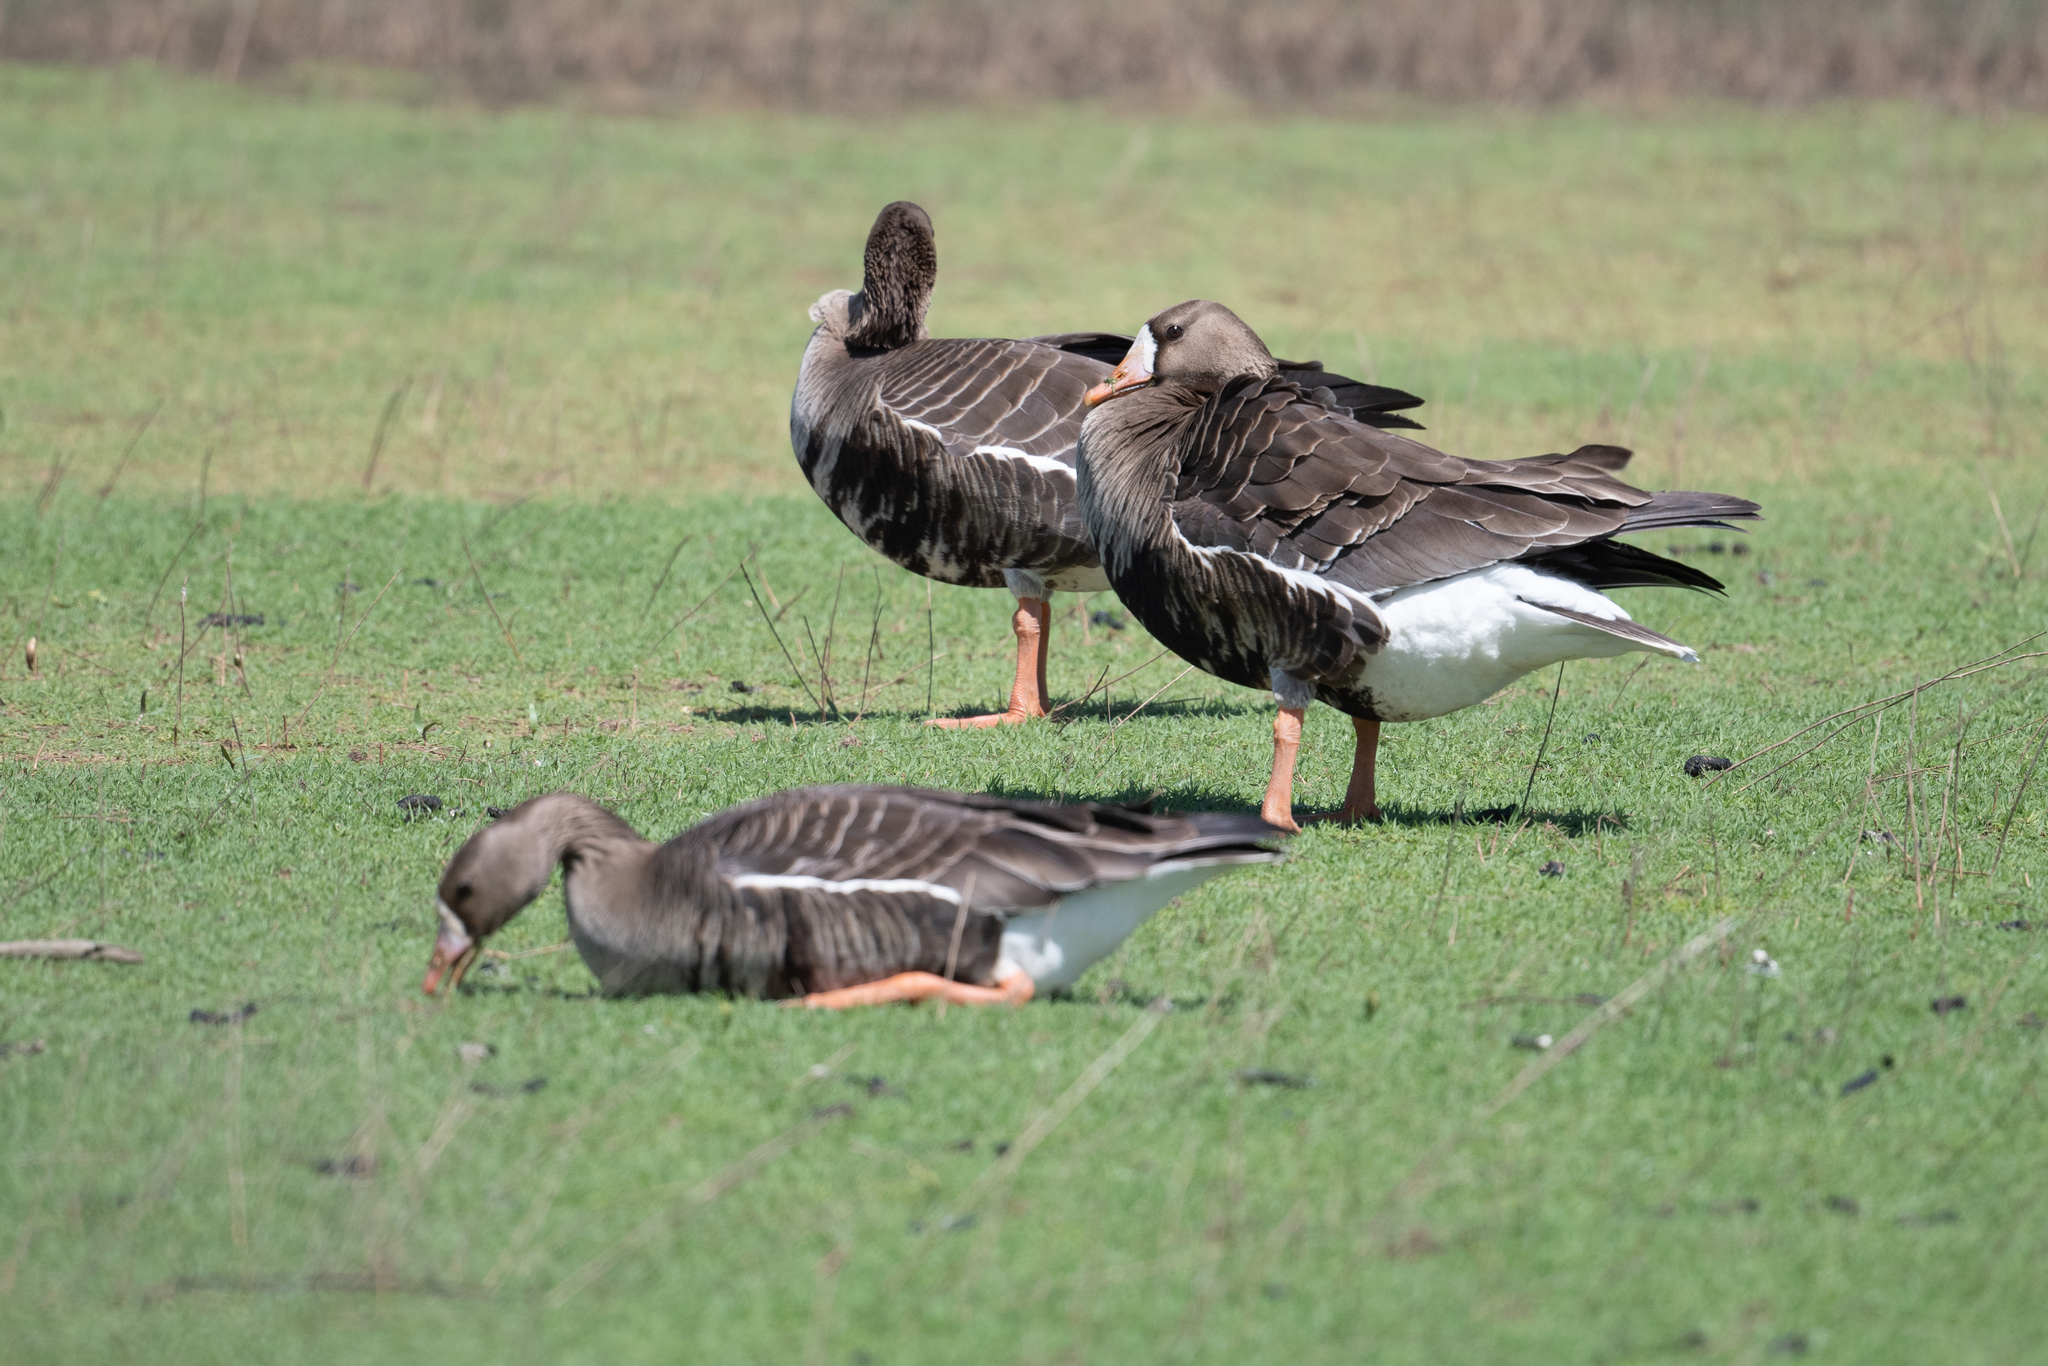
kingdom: Animalia
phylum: Chordata
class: Aves
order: Anseriformes
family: Anatidae
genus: Anser
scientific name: Anser albifrons
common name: Greater white-fronted goose
